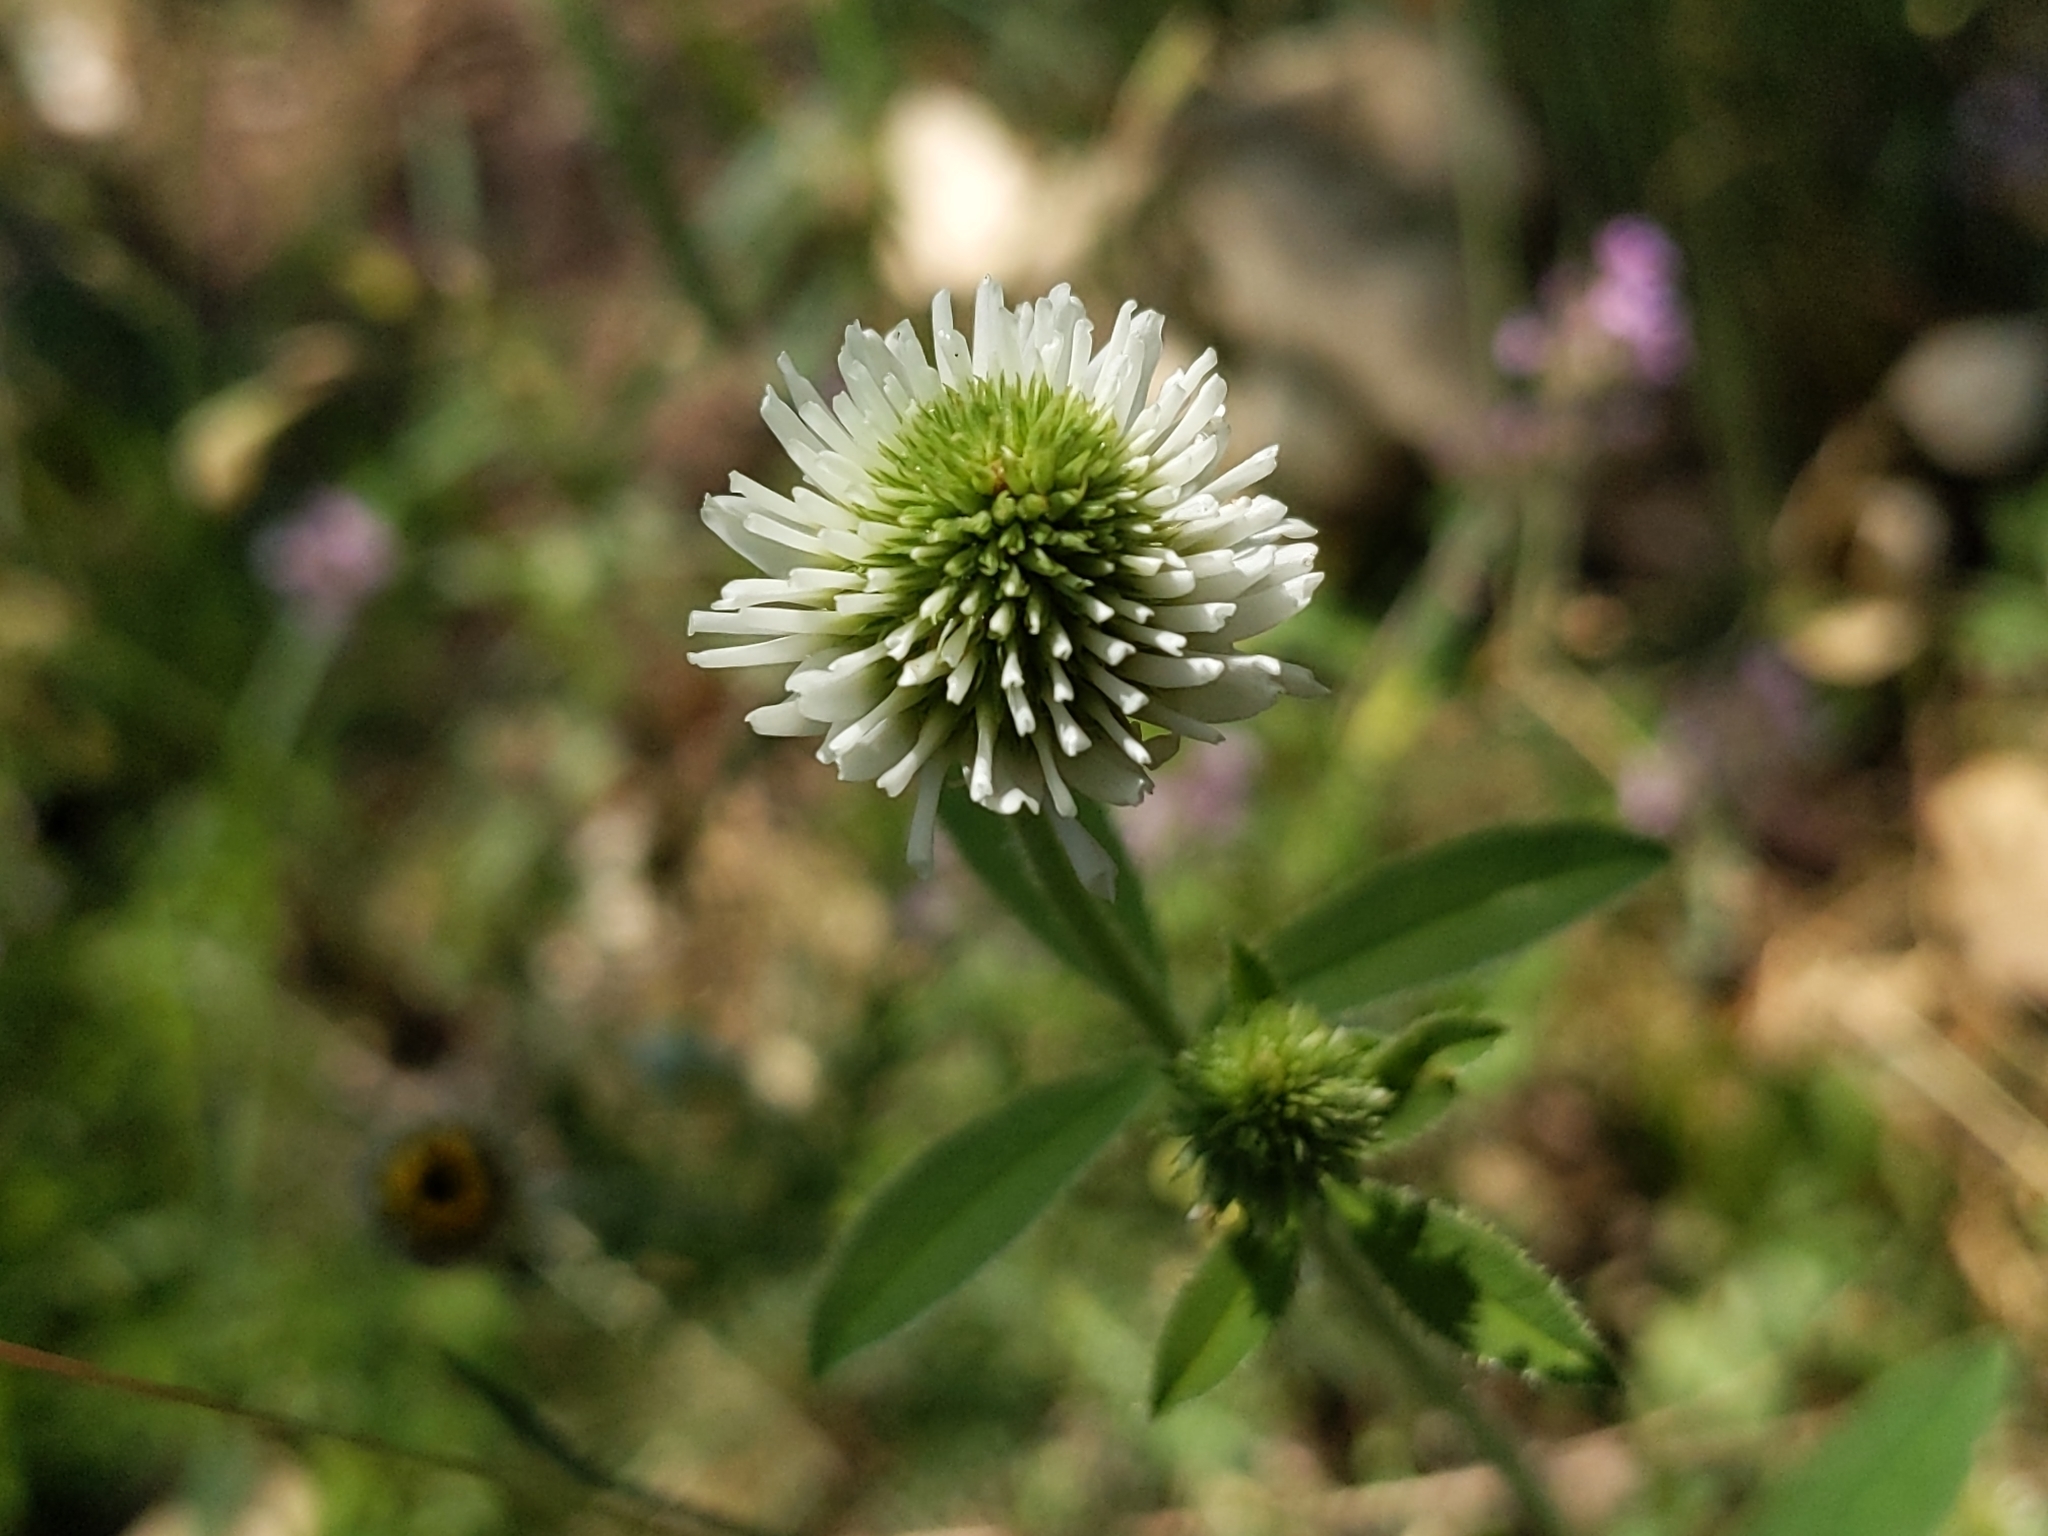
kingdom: Plantae
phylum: Tracheophyta
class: Magnoliopsida
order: Fabales
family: Fabaceae
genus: Trifolium
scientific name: Trifolium montanum
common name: Mountain clover
